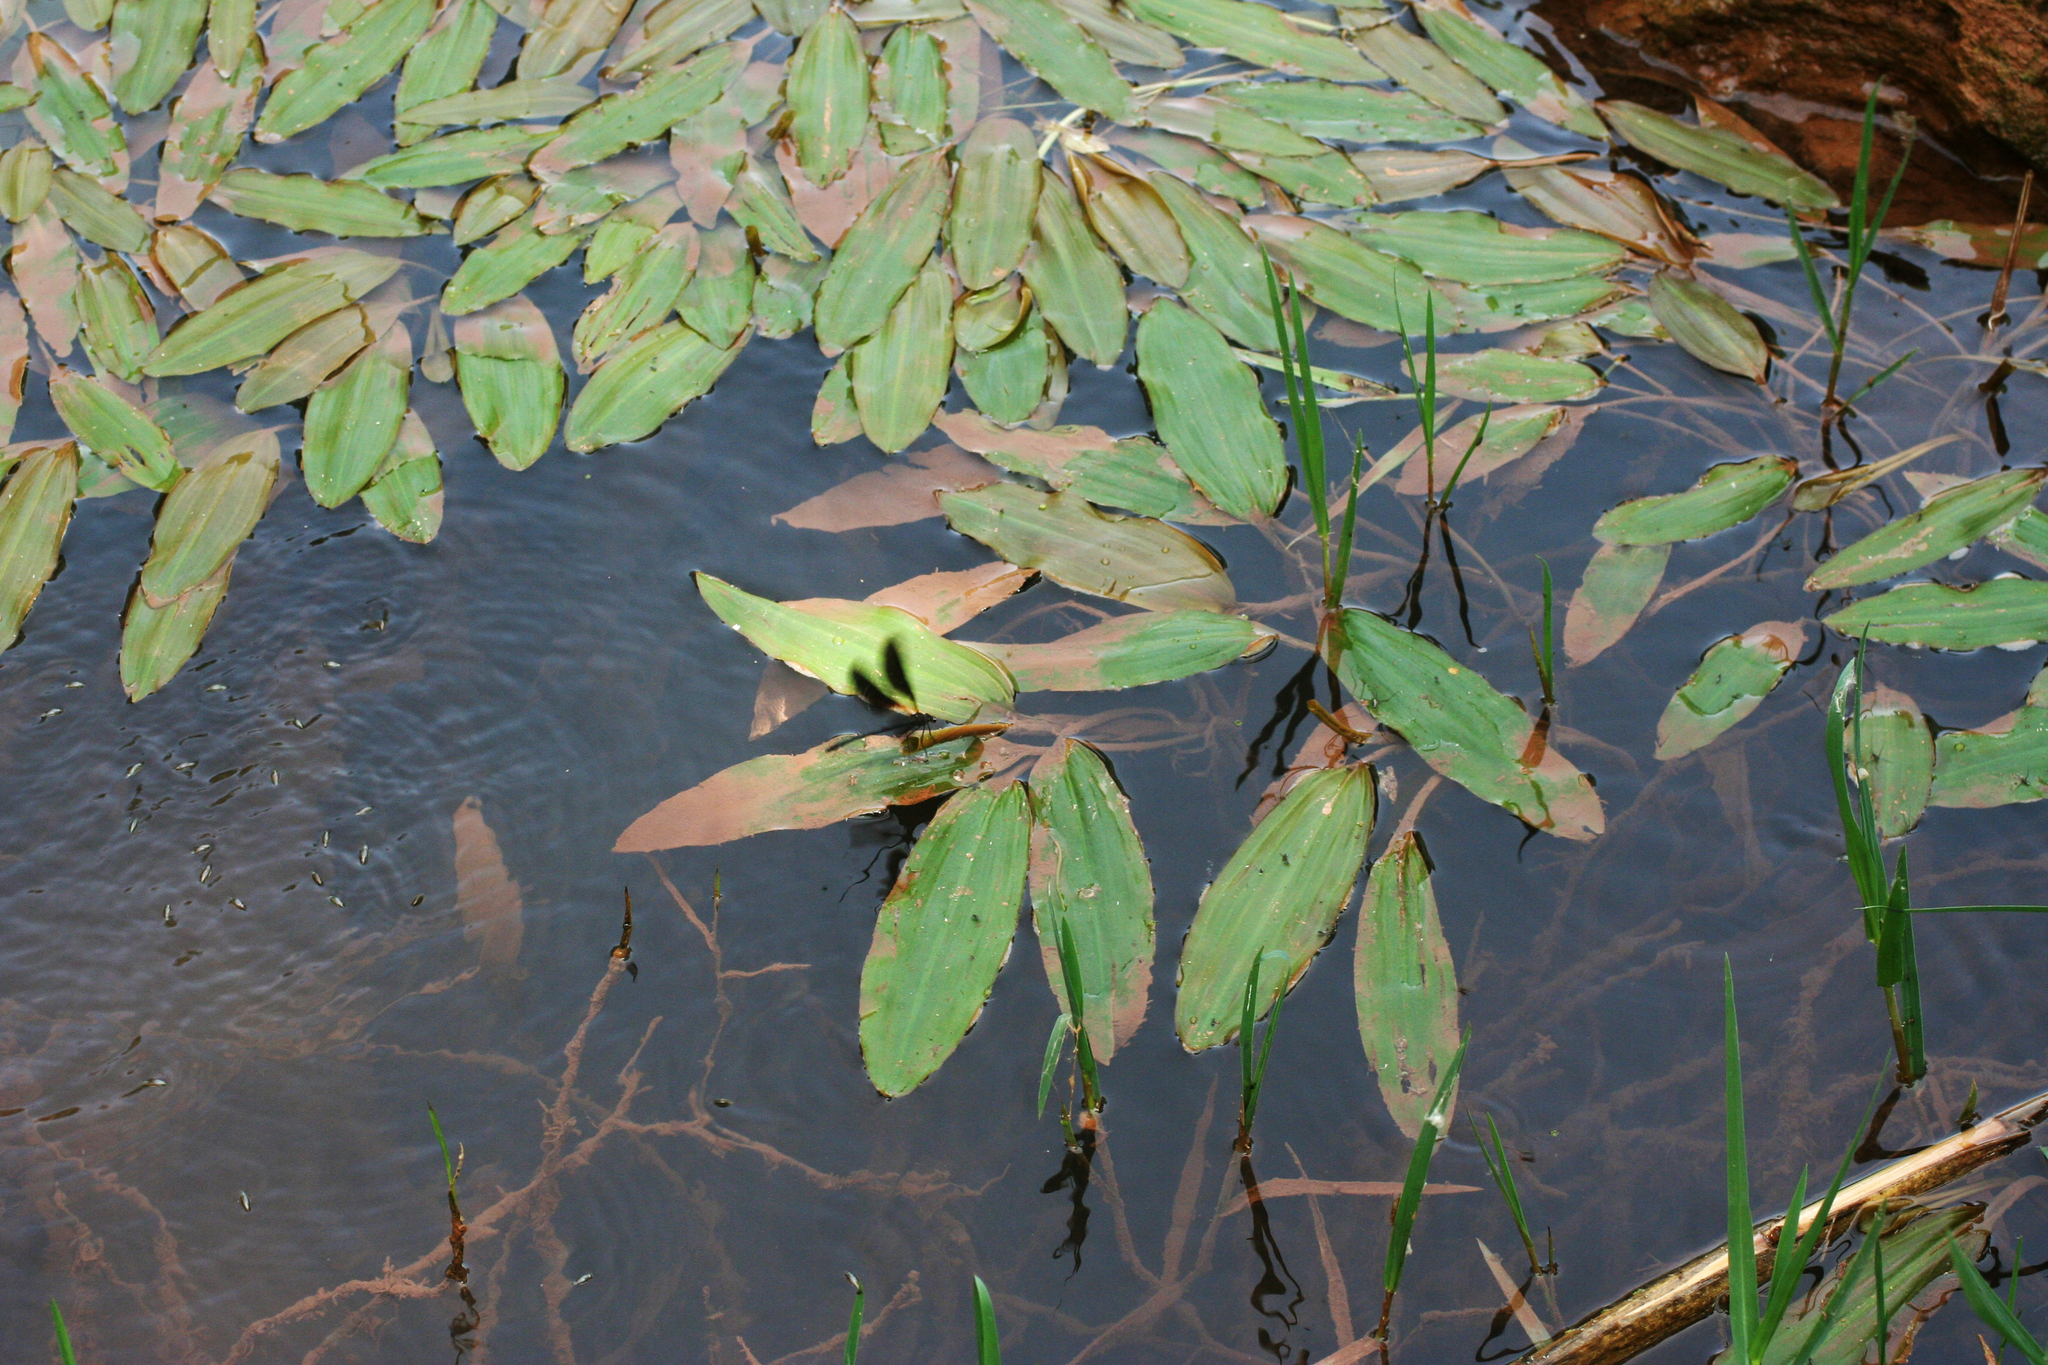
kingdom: Plantae
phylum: Tracheophyta
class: Liliopsida
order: Alismatales
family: Potamogetonaceae
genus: Potamogeton
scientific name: Potamogeton nodosus
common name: Loddon pondweed
